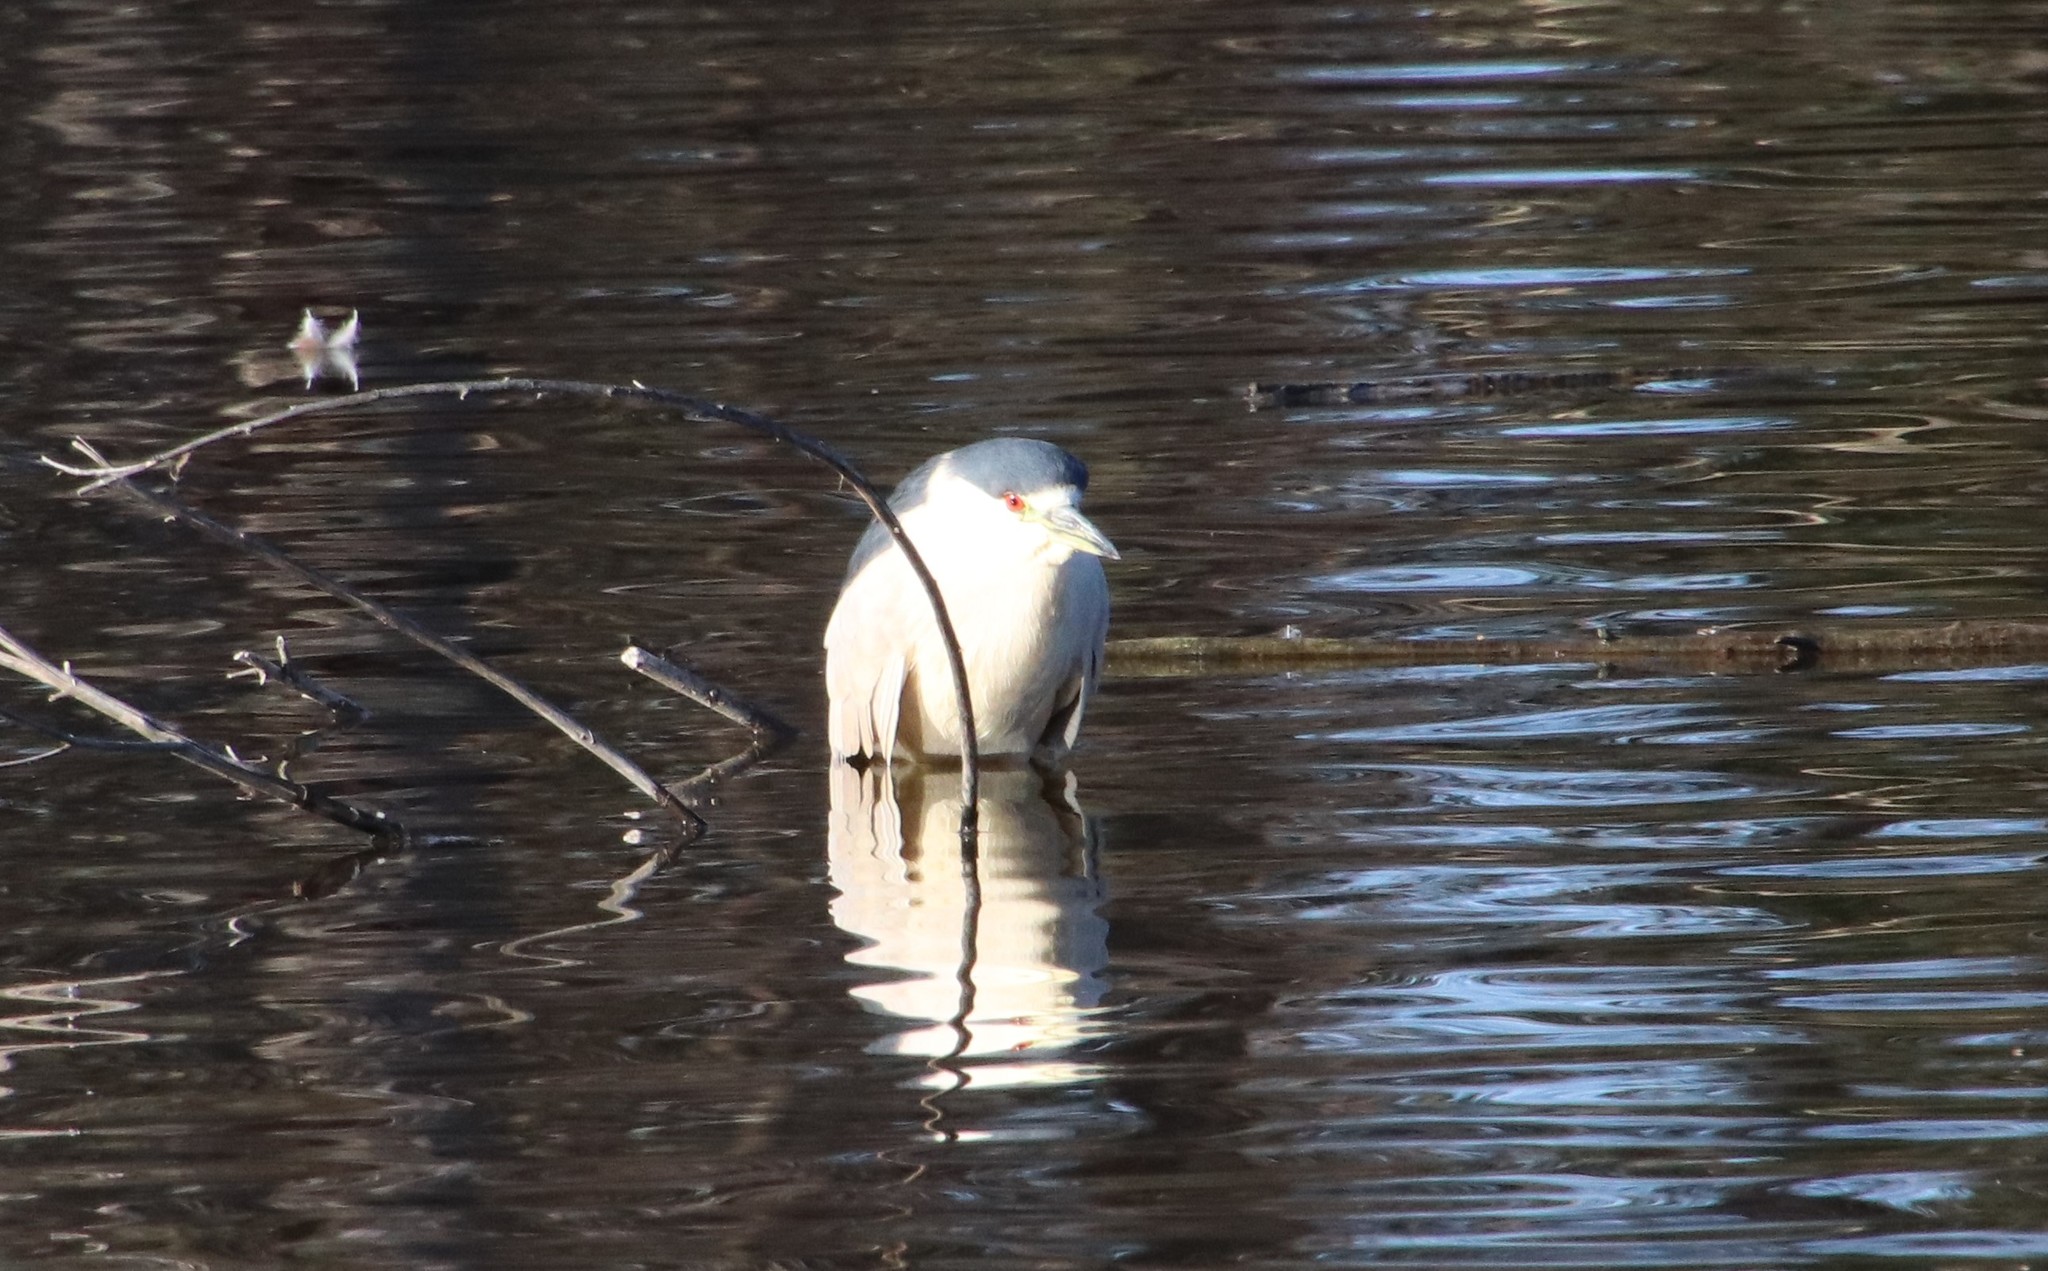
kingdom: Animalia
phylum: Chordata
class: Aves
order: Pelecaniformes
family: Ardeidae
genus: Nycticorax
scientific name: Nycticorax nycticorax
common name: Black-crowned night heron
